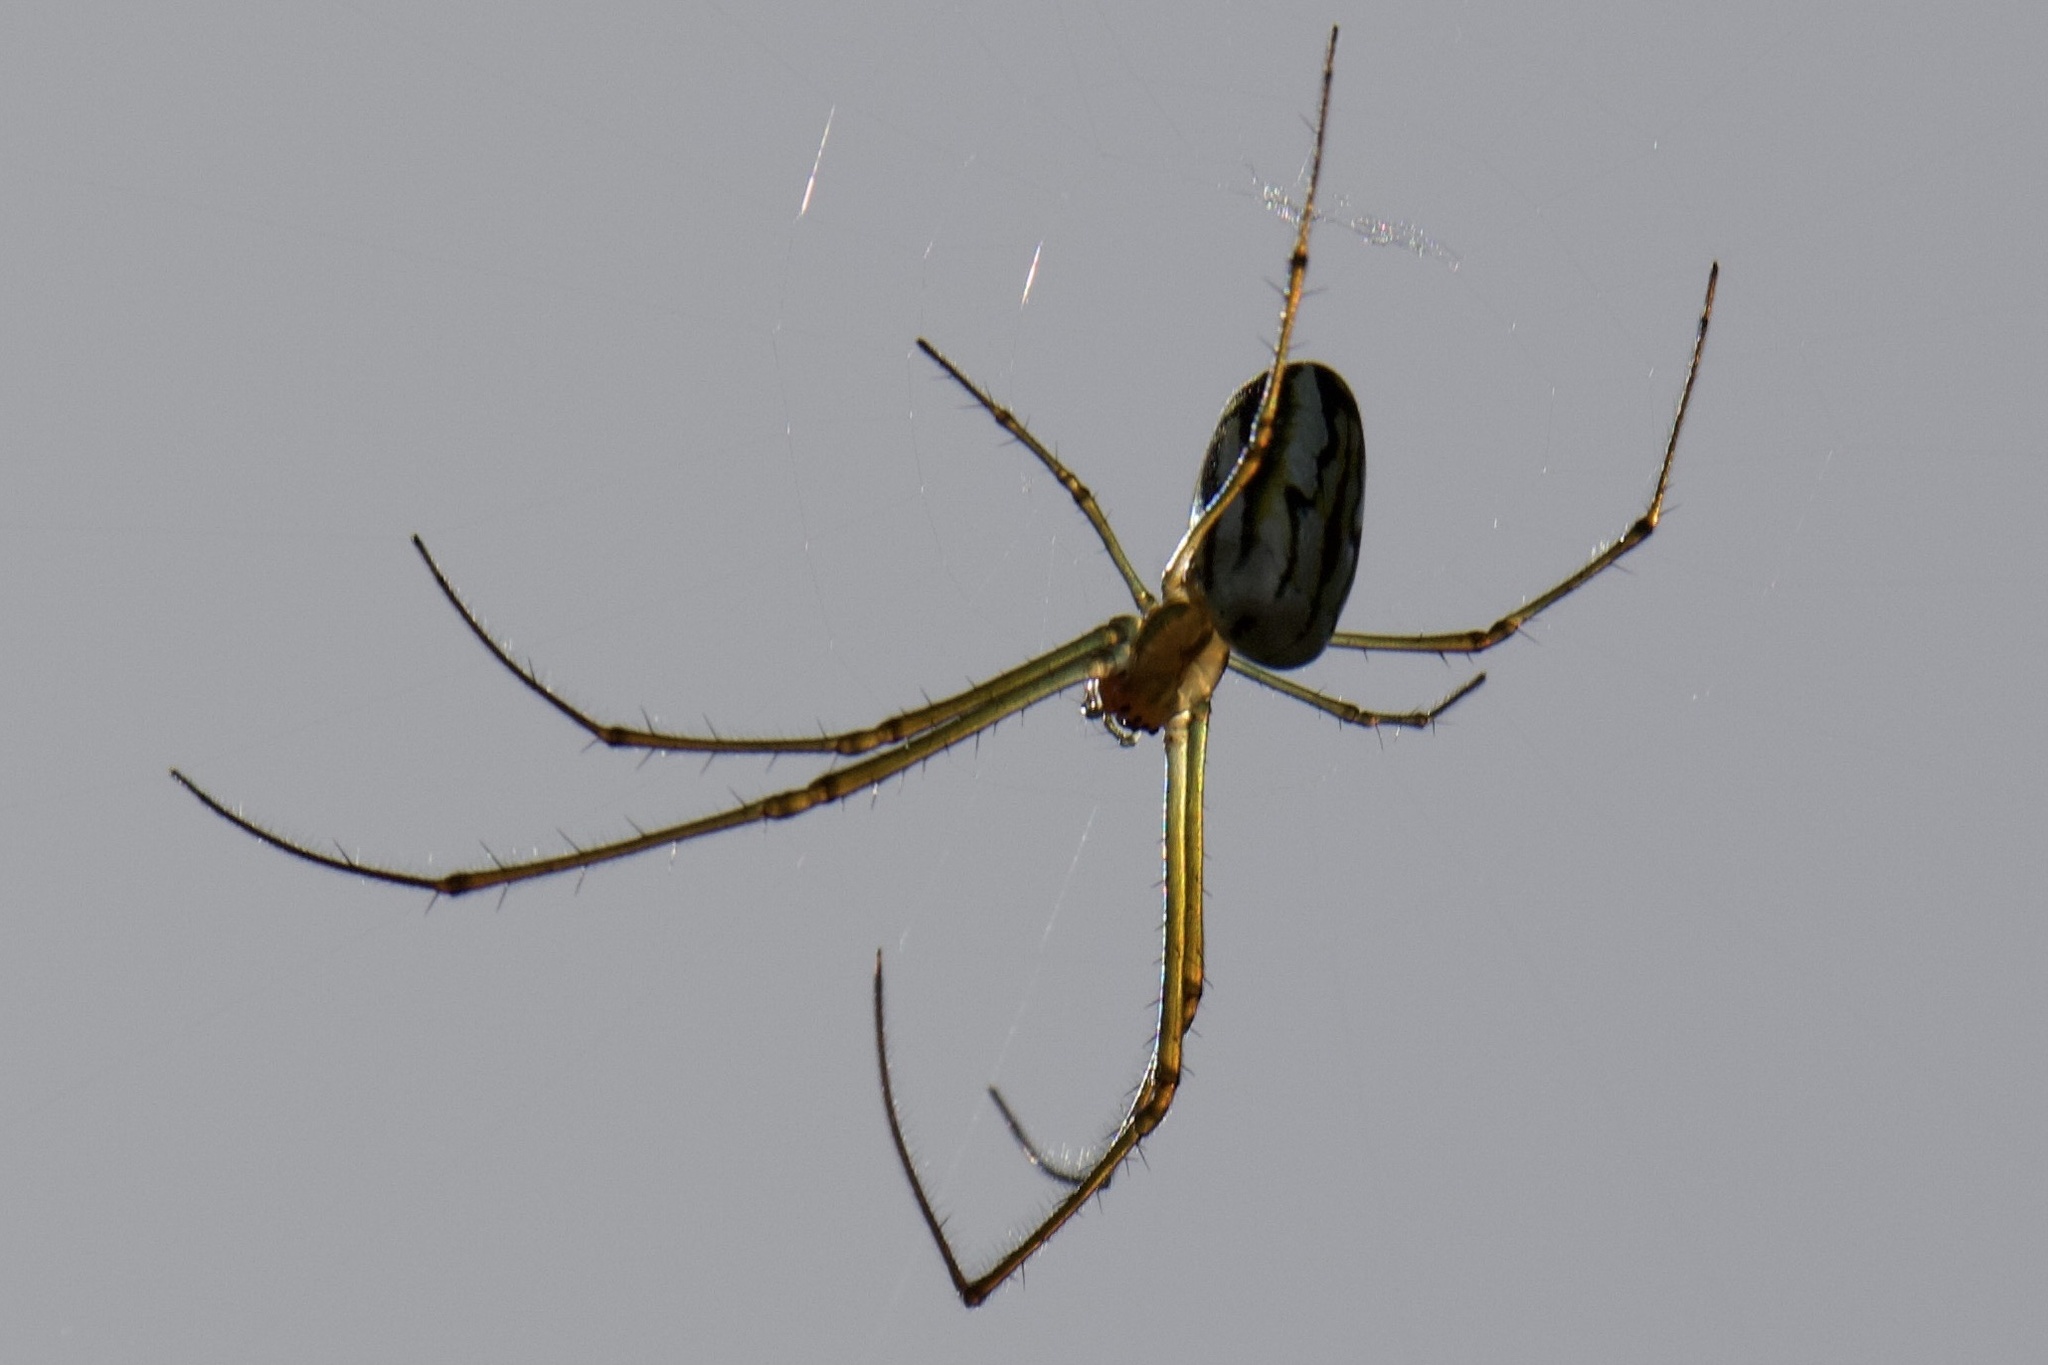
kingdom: Animalia
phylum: Arthropoda
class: Arachnida
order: Araneae
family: Tetragnathidae
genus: Leucauge
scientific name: Leucauge argyra
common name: Longjawed orb weavers
